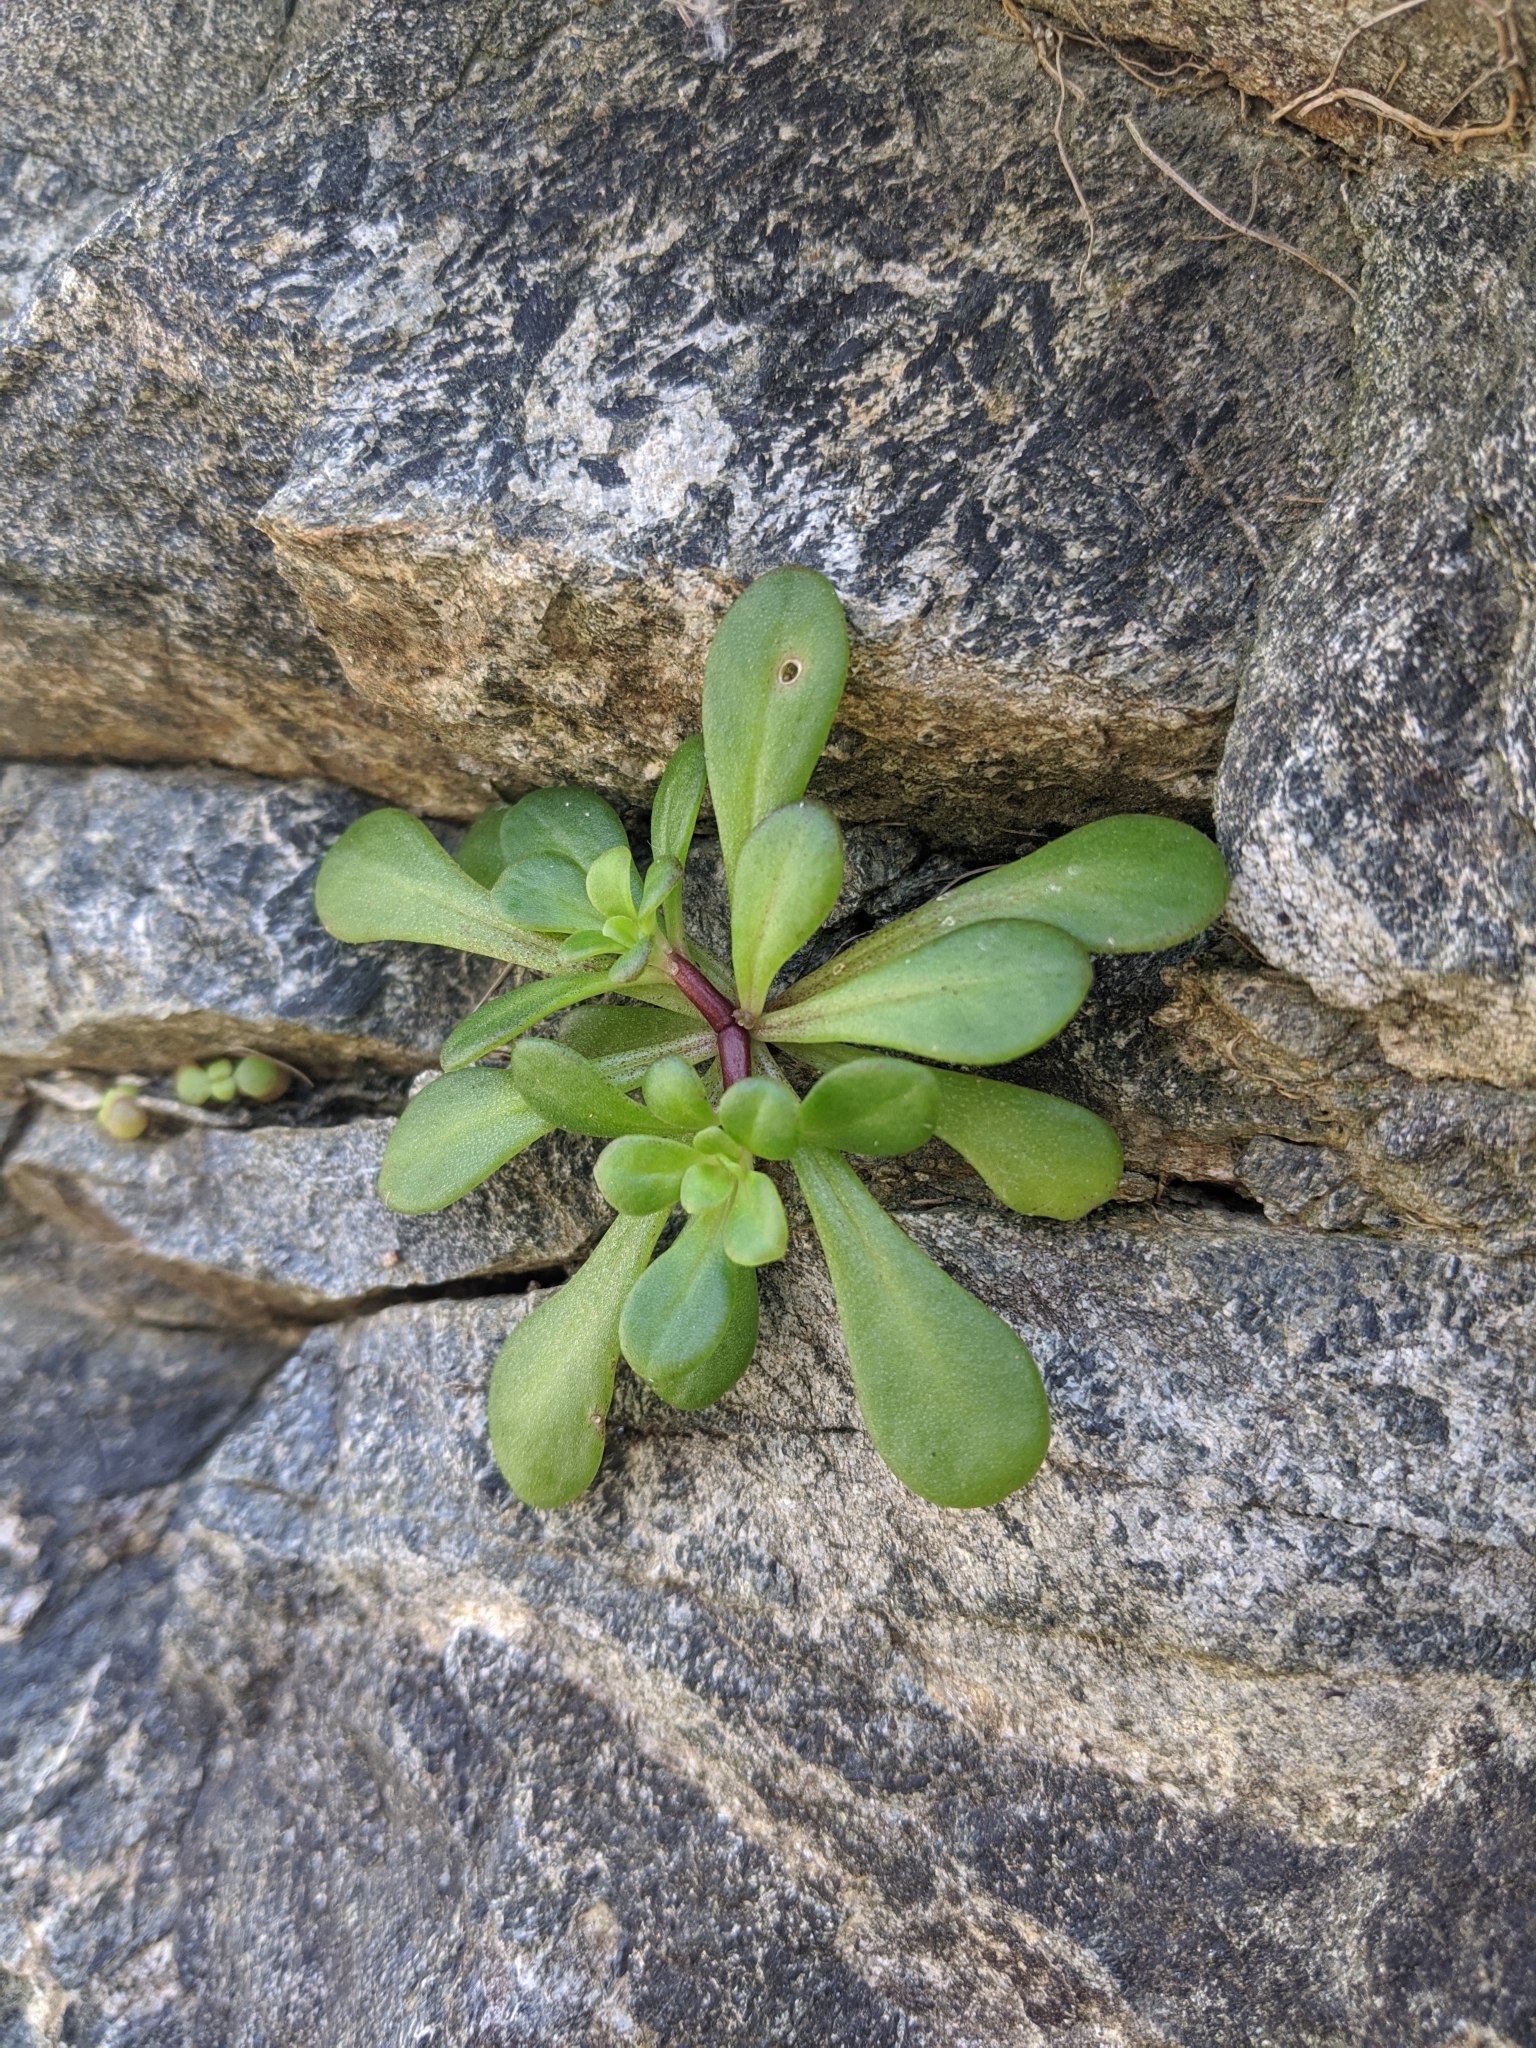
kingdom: Plantae
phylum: Tracheophyta
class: Magnoliopsida
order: Saxifragales
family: Crassulaceae
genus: Sedum
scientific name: Sedum formosanum
